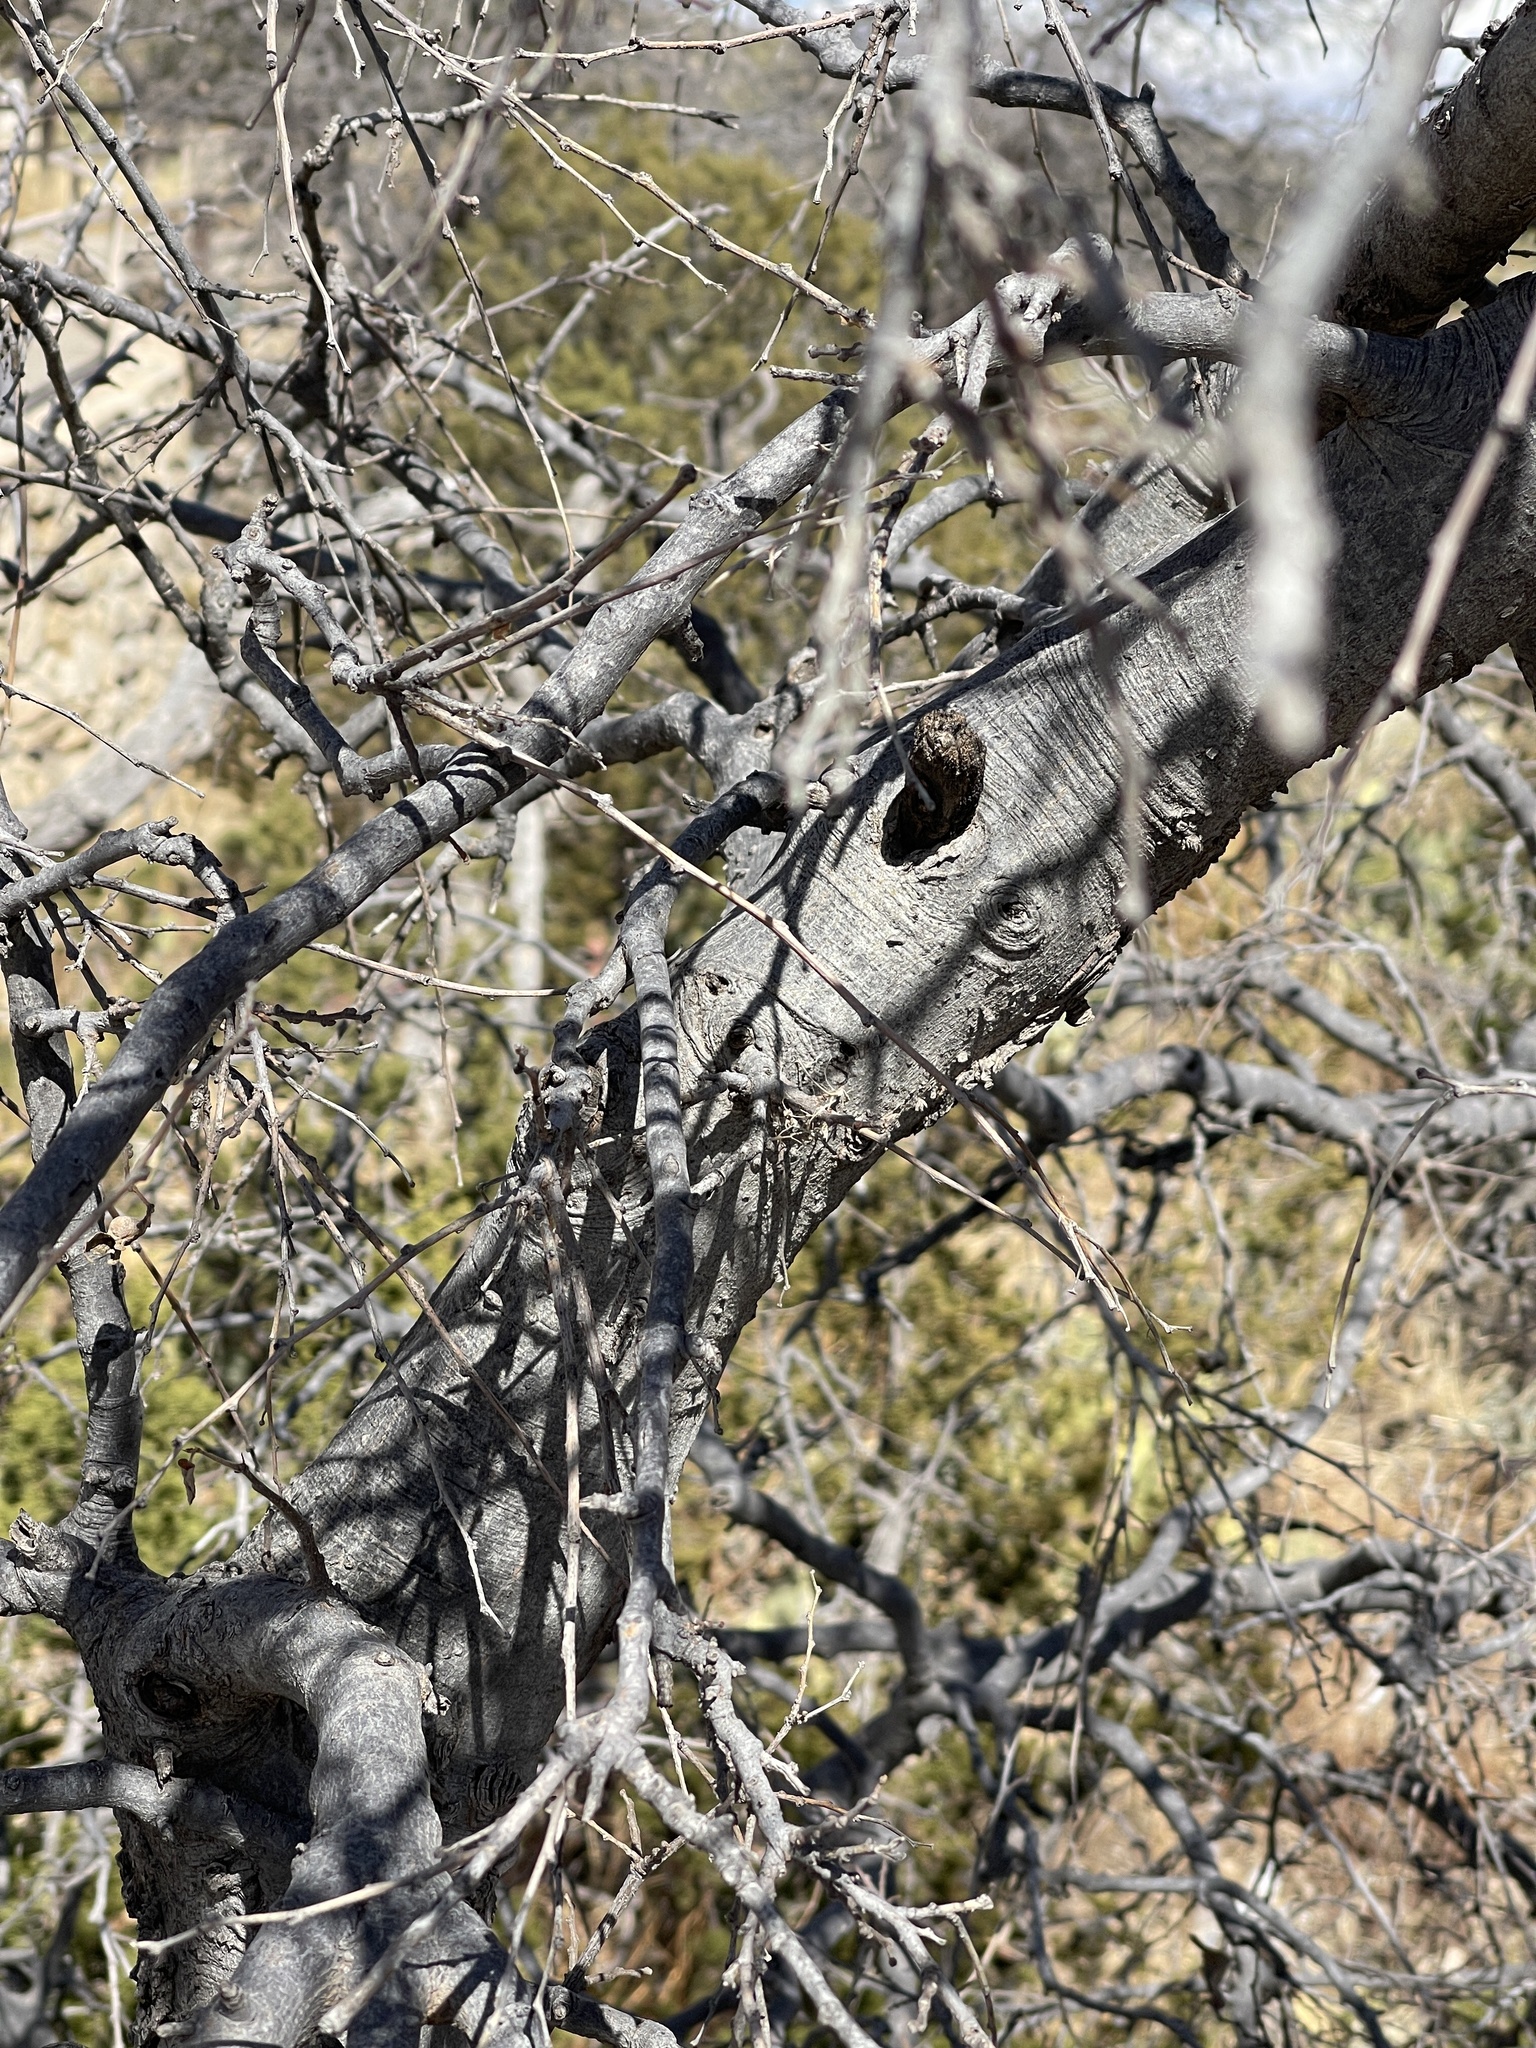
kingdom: Plantae
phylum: Tracheophyta
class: Magnoliopsida
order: Rosales
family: Cannabaceae
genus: Celtis
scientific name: Celtis reticulata
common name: Netleaf hackberry
